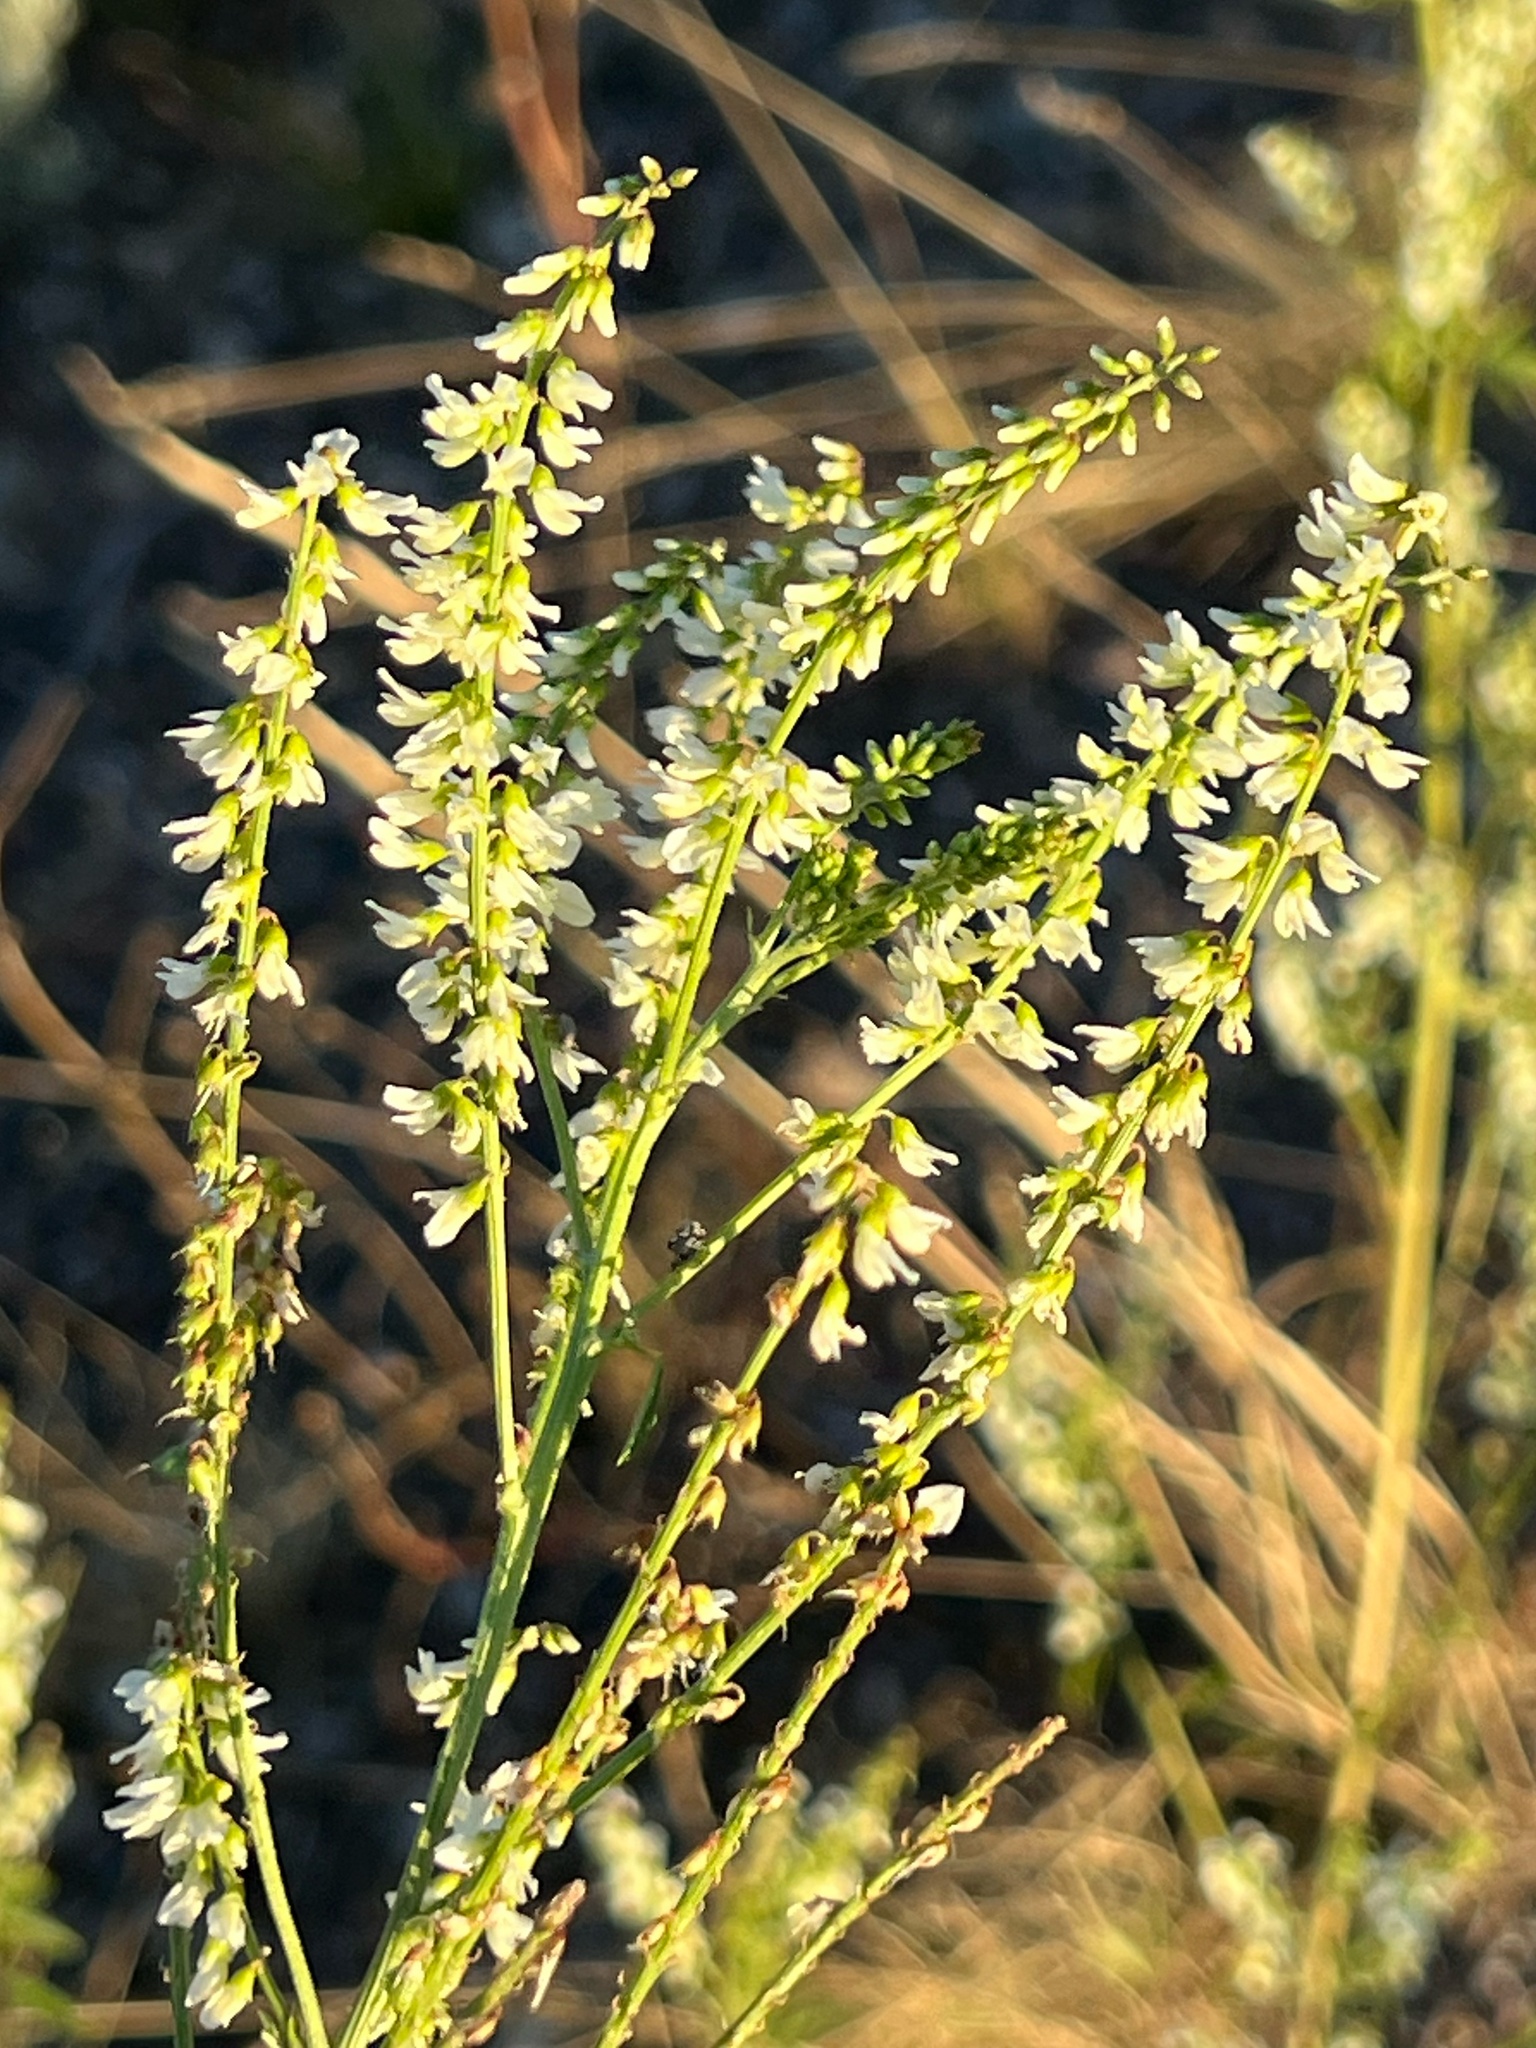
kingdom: Plantae
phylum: Tracheophyta
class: Magnoliopsida
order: Fabales
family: Fabaceae
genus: Melilotus
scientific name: Melilotus albus
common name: White melilot
